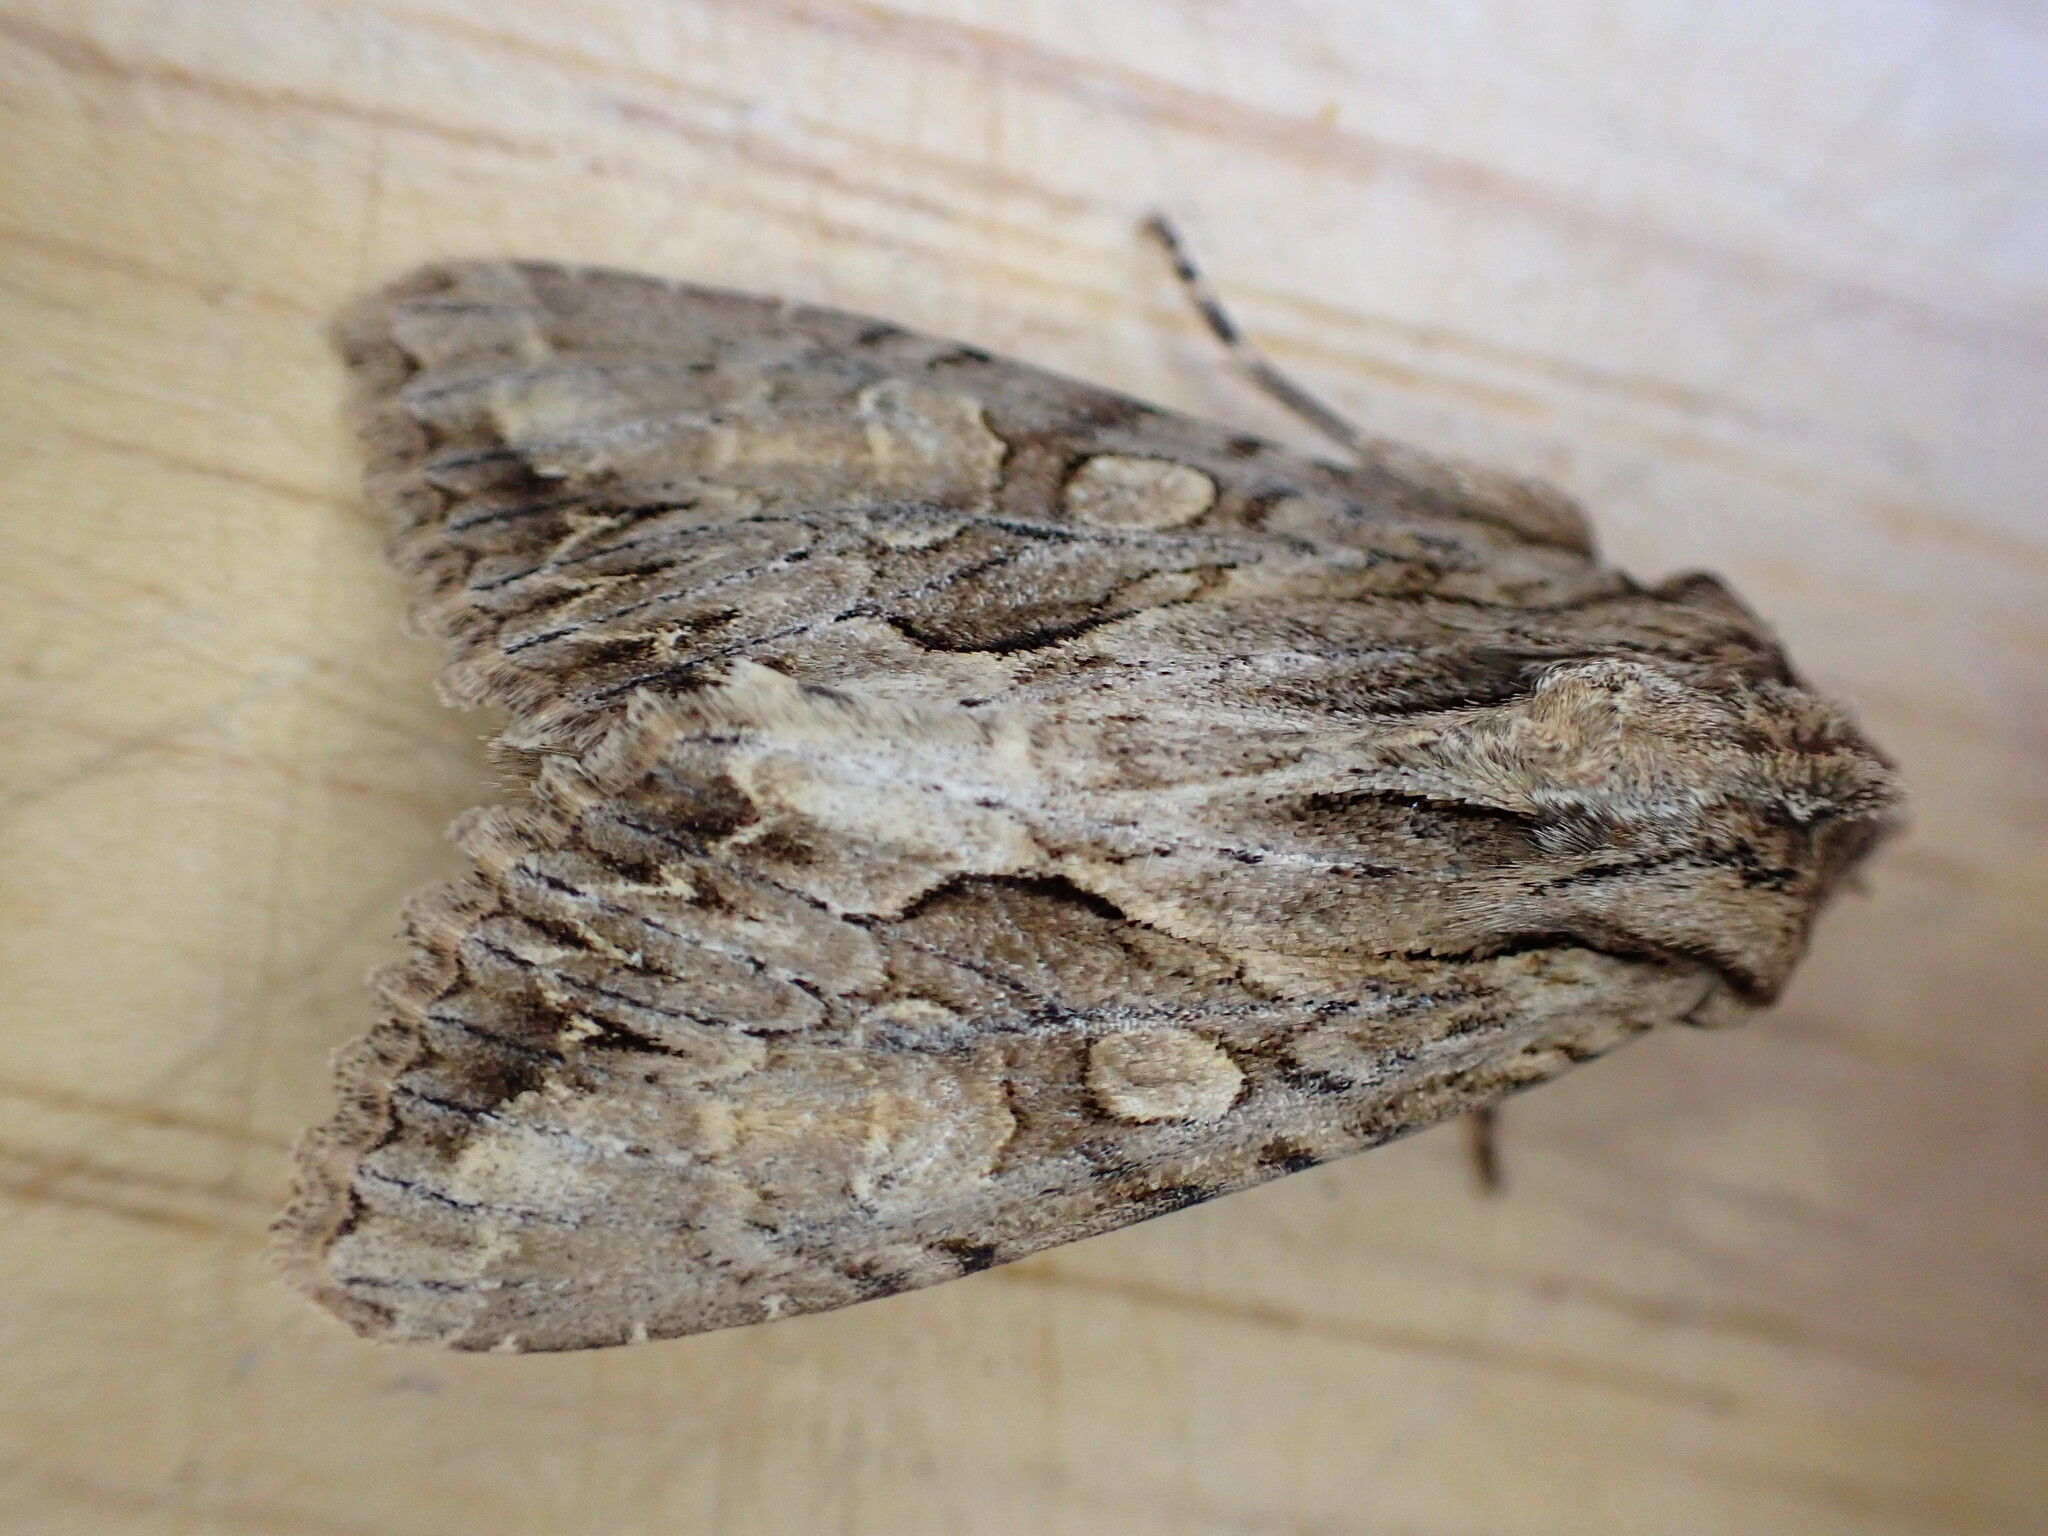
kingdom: Animalia
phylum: Arthropoda
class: Insecta
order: Lepidoptera
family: Noctuidae
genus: Apamea
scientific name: Apamea monoglypha
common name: Dark arches
